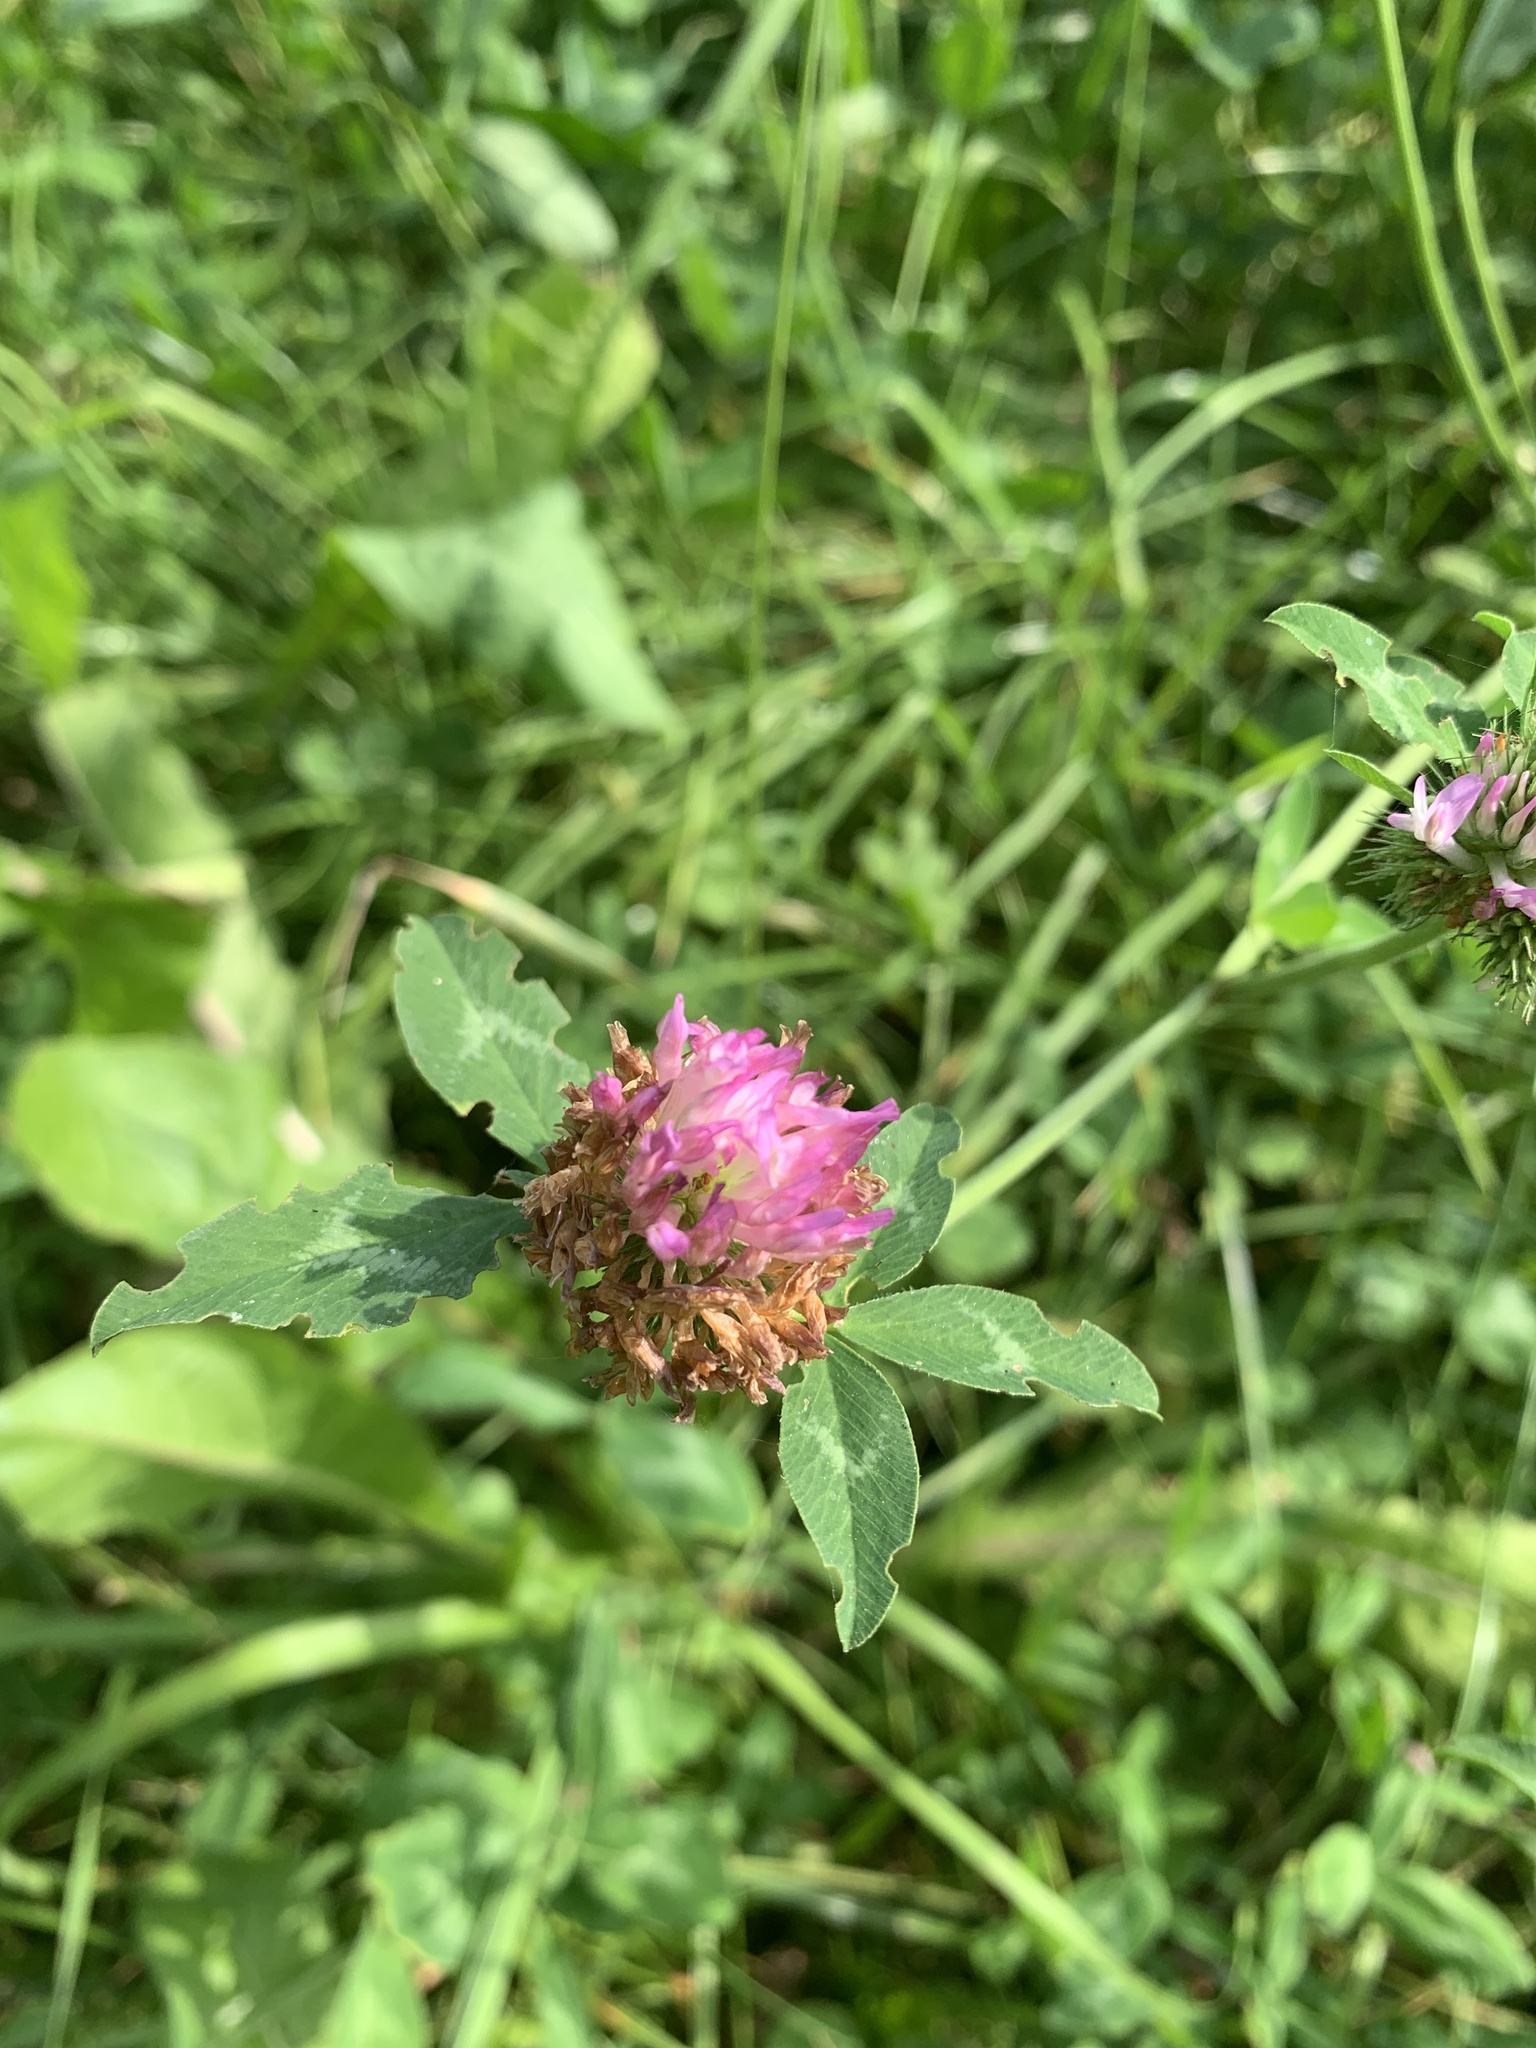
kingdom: Plantae
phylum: Tracheophyta
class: Magnoliopsida
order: Fabales
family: Fabaceae
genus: Trifolium
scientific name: Trifolium pratense
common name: Red clover
